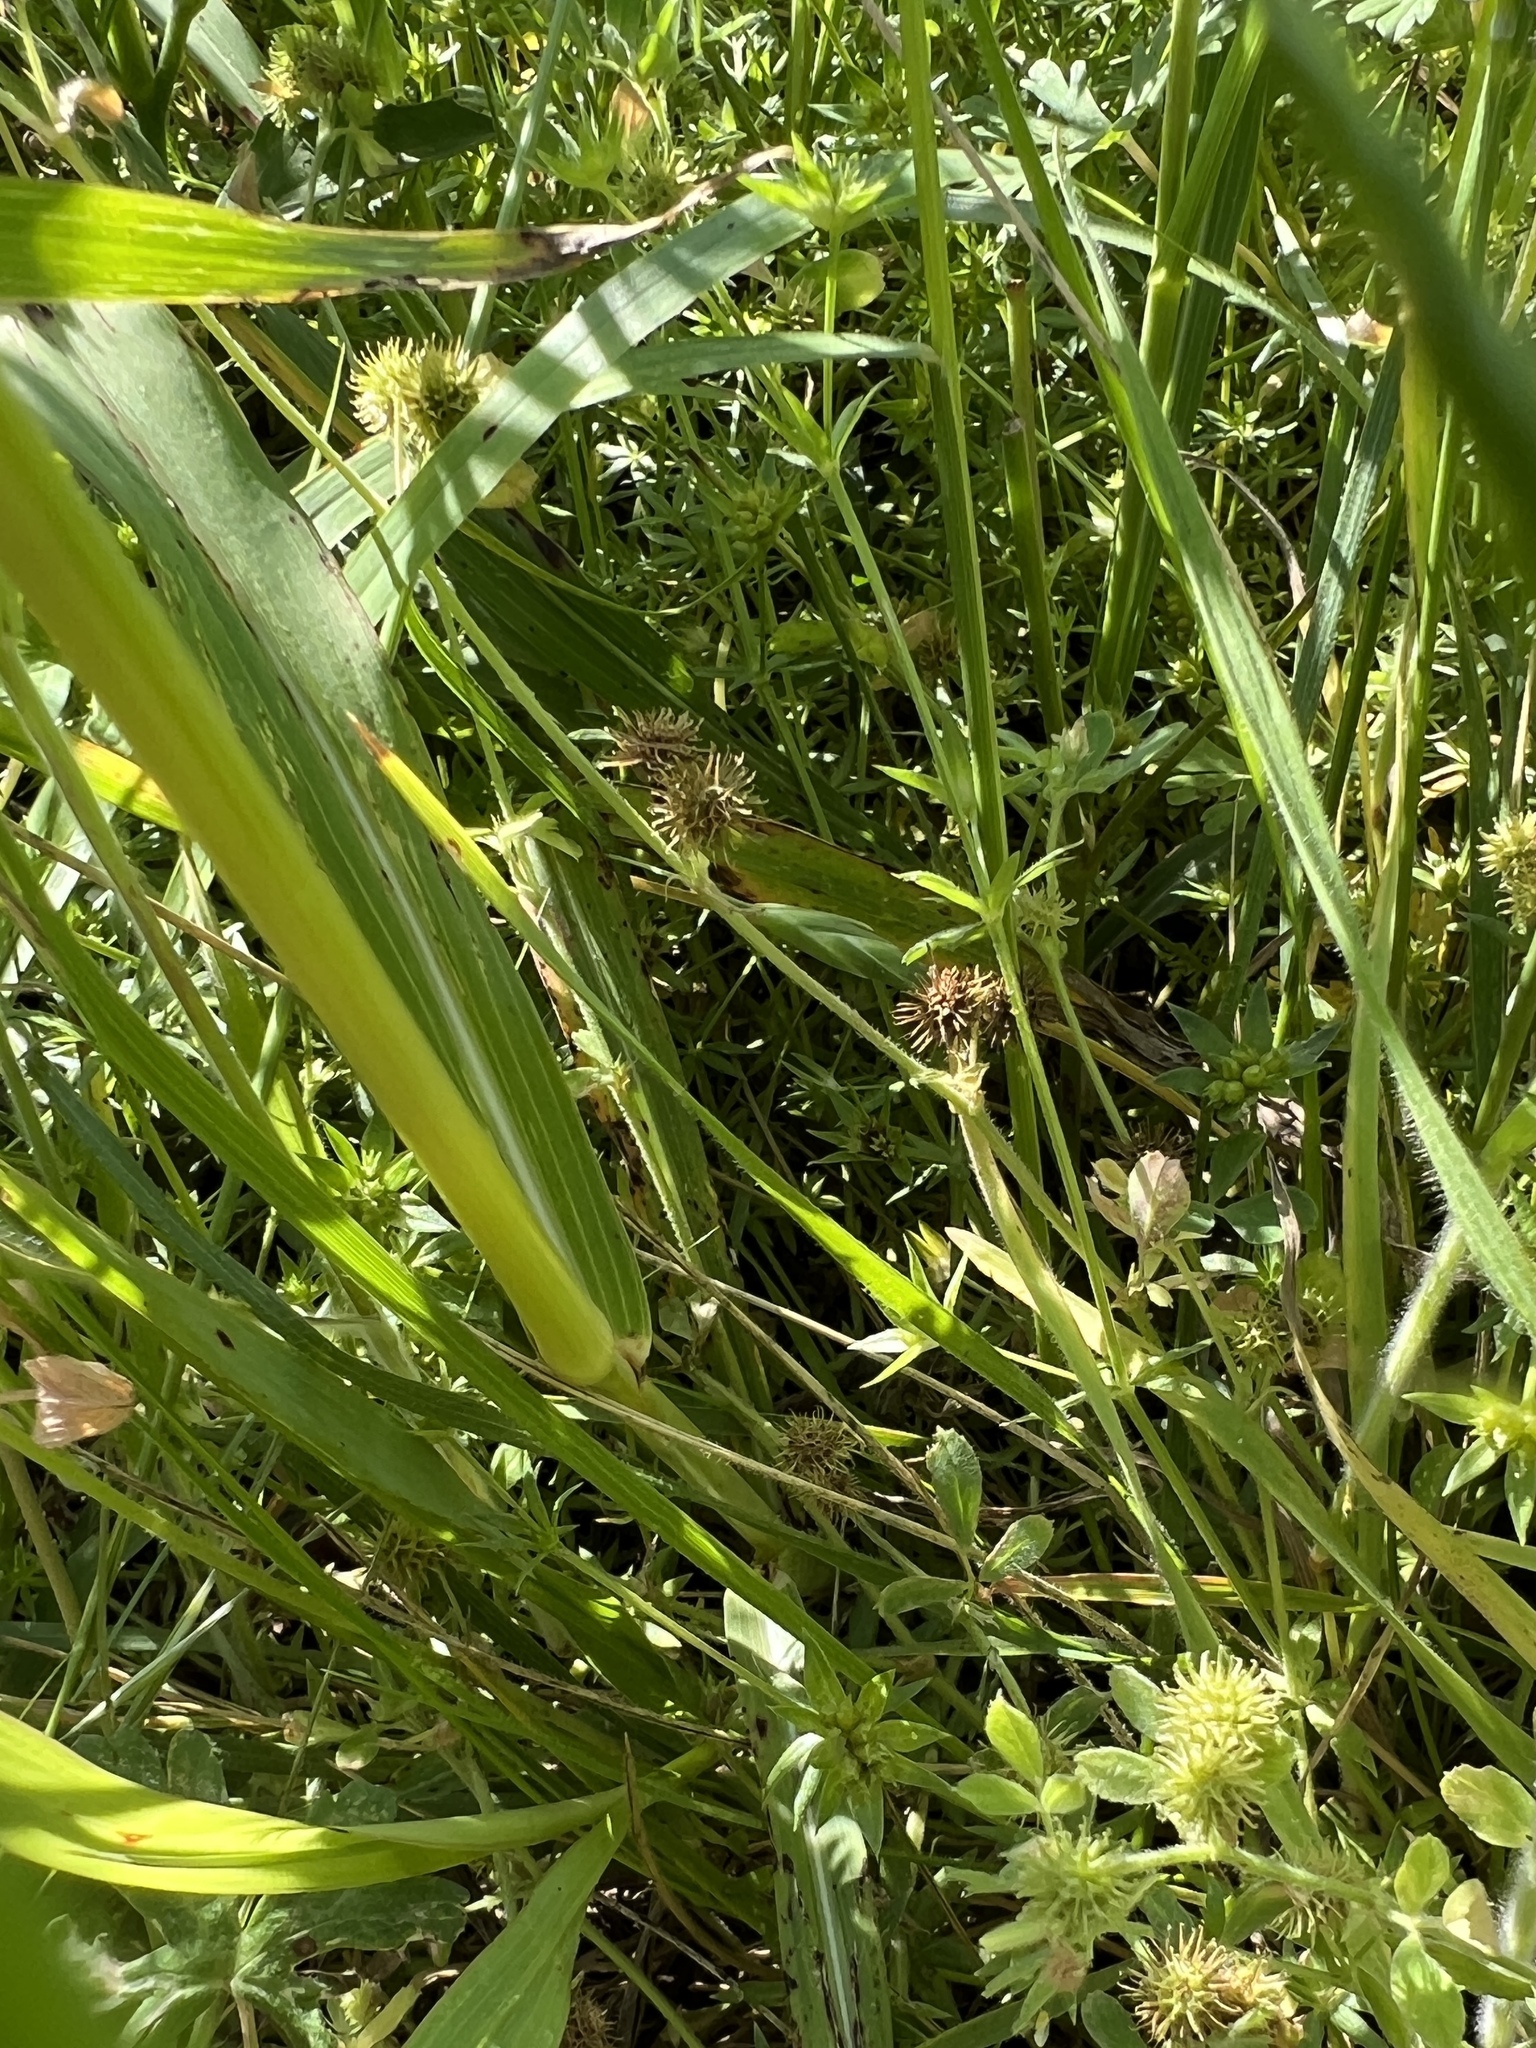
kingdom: Plantae
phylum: Tracheophyta
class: Liliopsida
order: Poales
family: Poaceae
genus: Sorghum
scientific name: Sorghum halepense
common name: Johnson-grass
